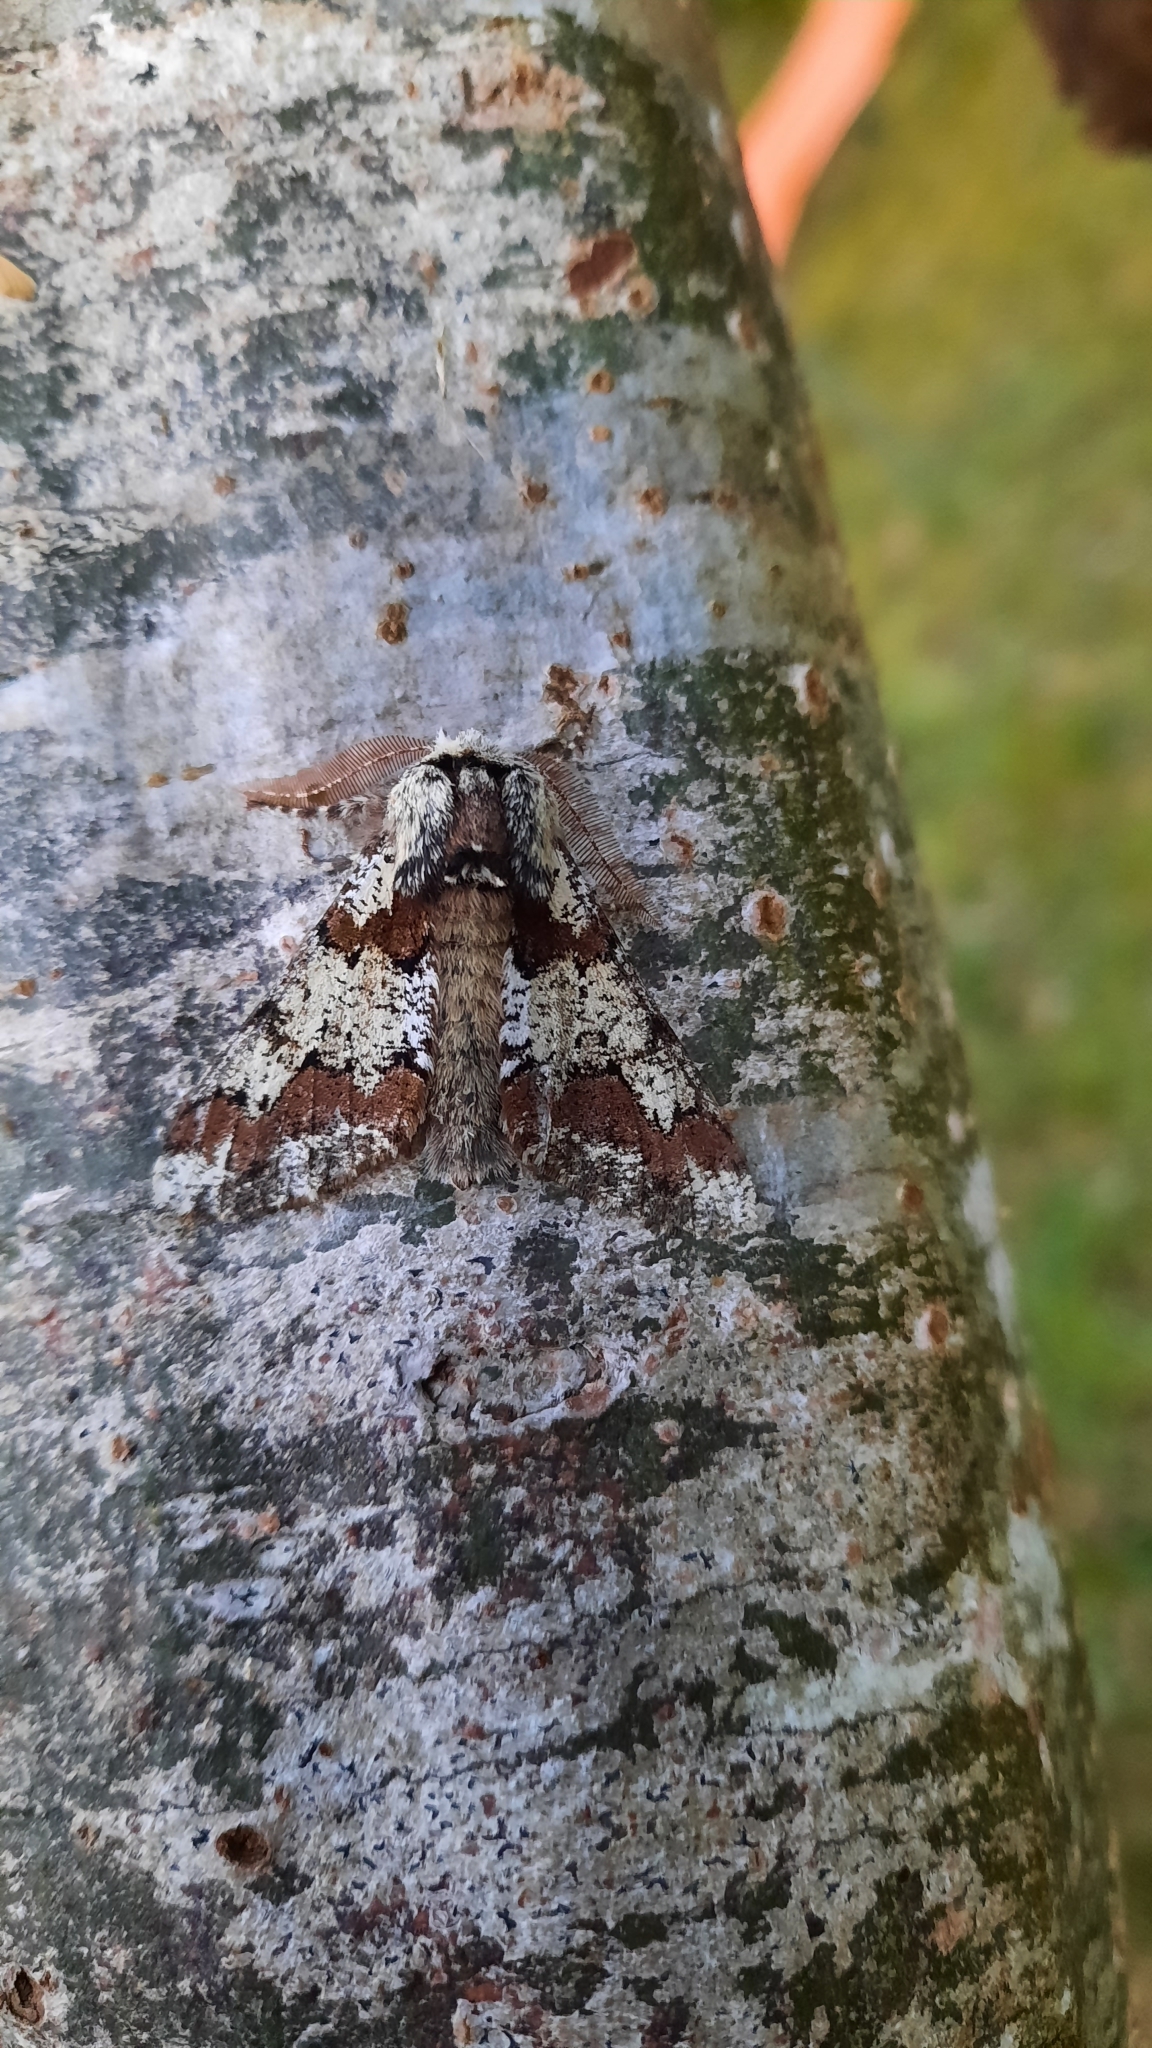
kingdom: Animalia
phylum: Arthropoda
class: Insecta
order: Lepidoptera
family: Geometridae
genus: Biston
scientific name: Biston strataria
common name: Oak beauty
